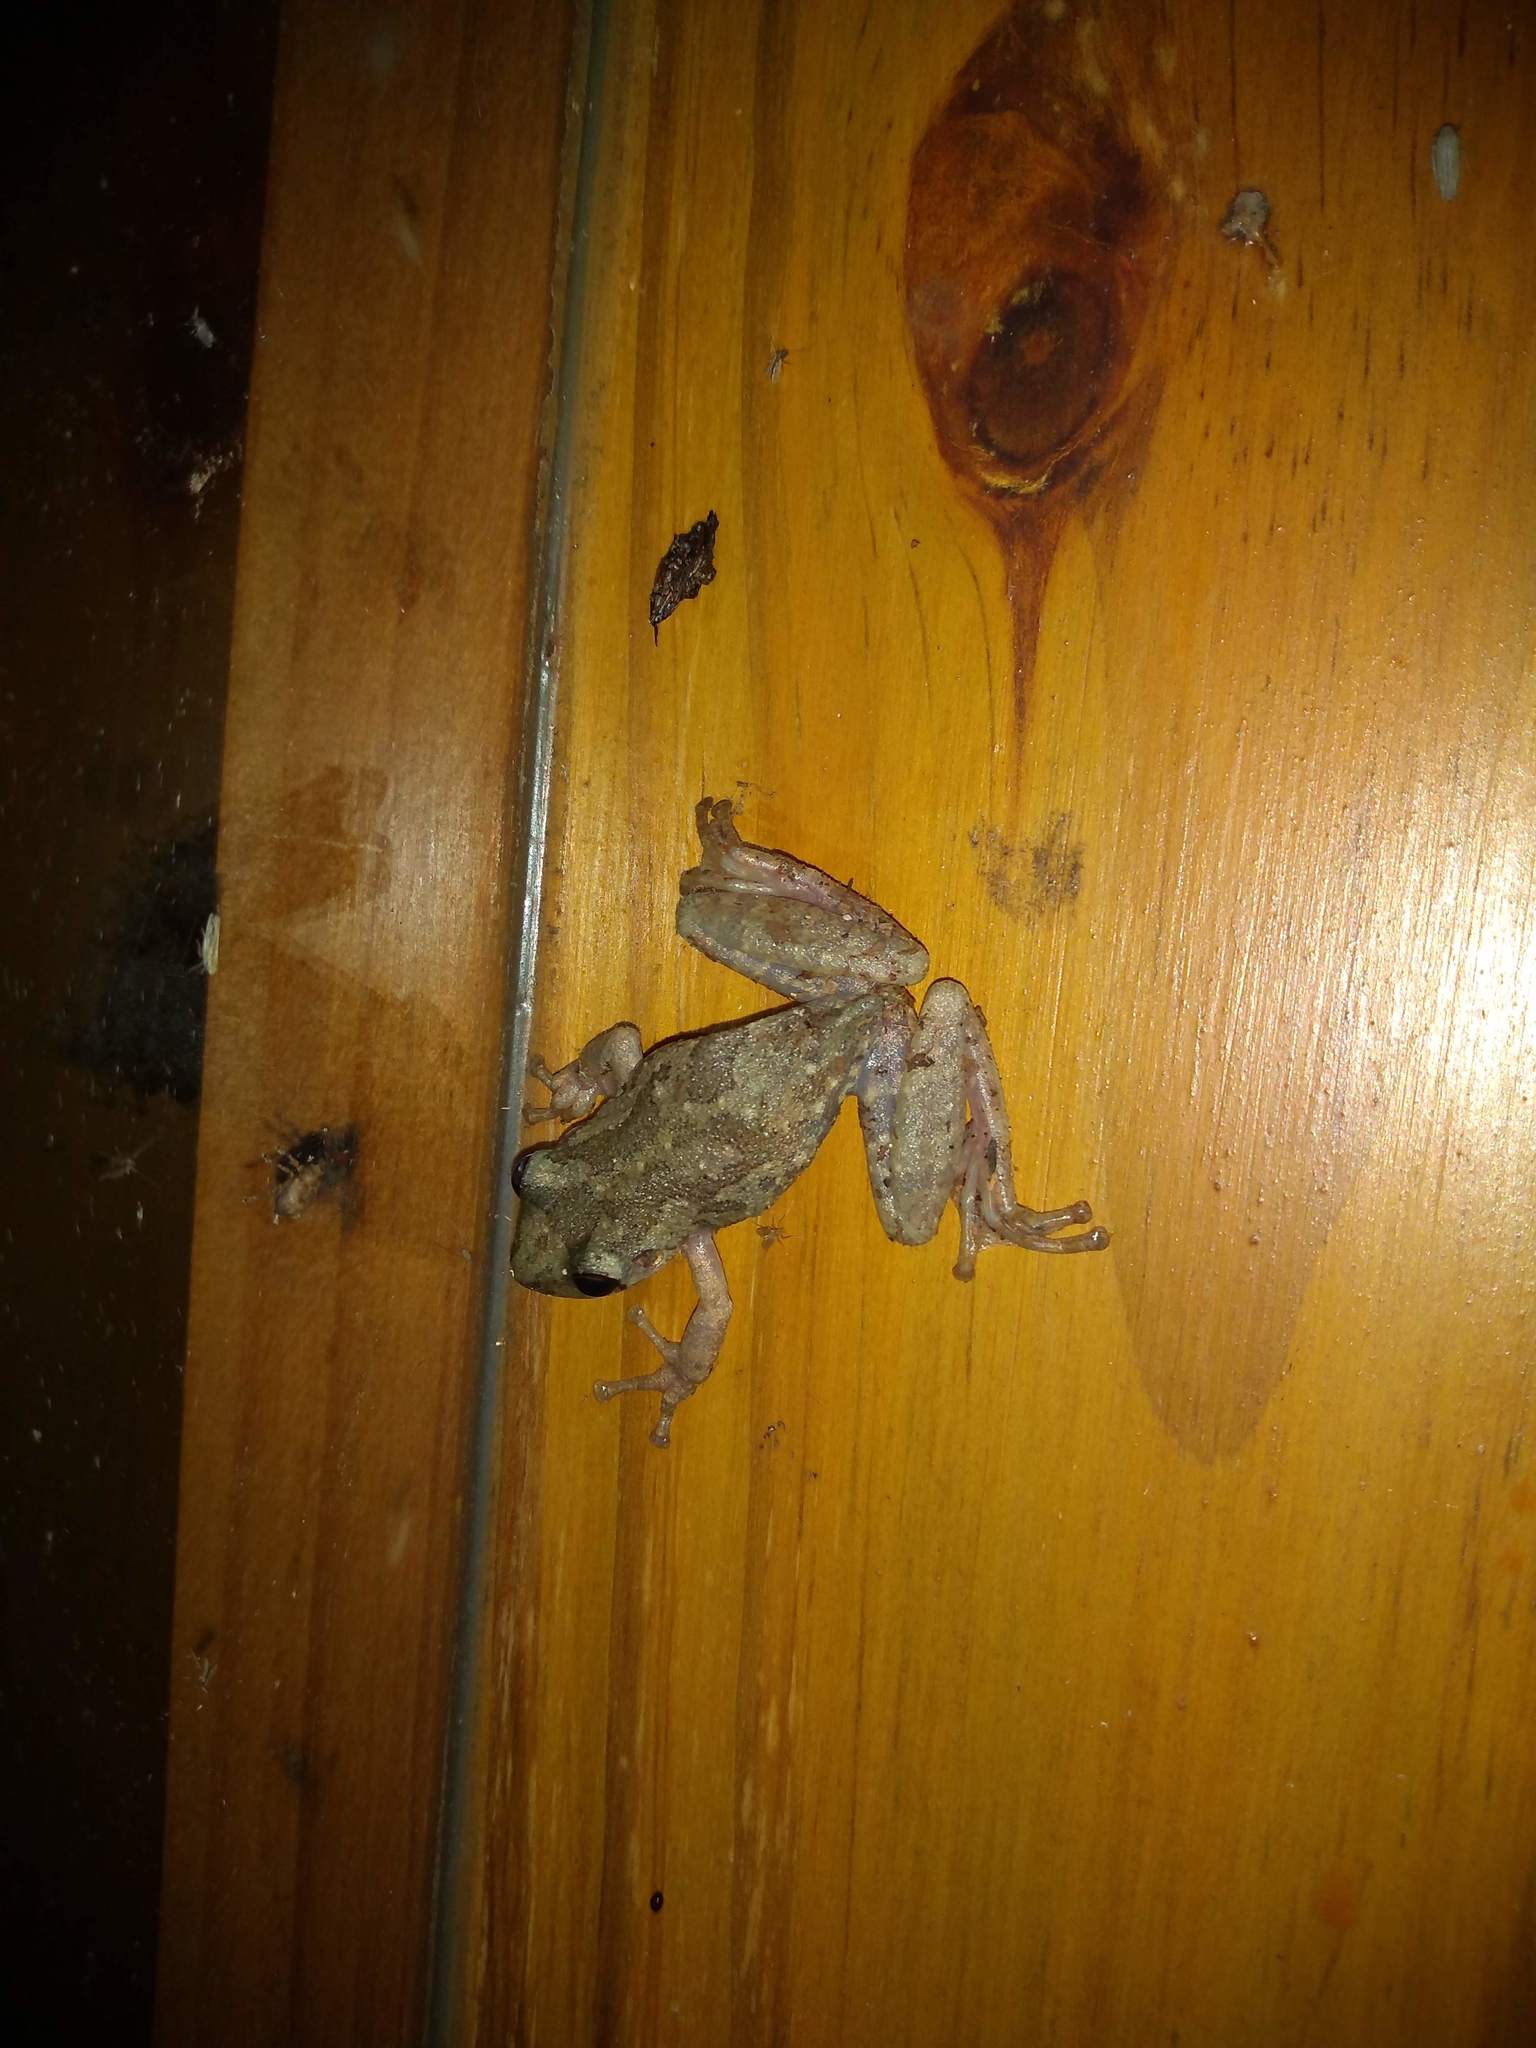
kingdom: Animalia
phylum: Chordata
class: Amphibia
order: Anura
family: Hylidae
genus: Scinax
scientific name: Scinax nasicus
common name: Lesser snouted treefrog
